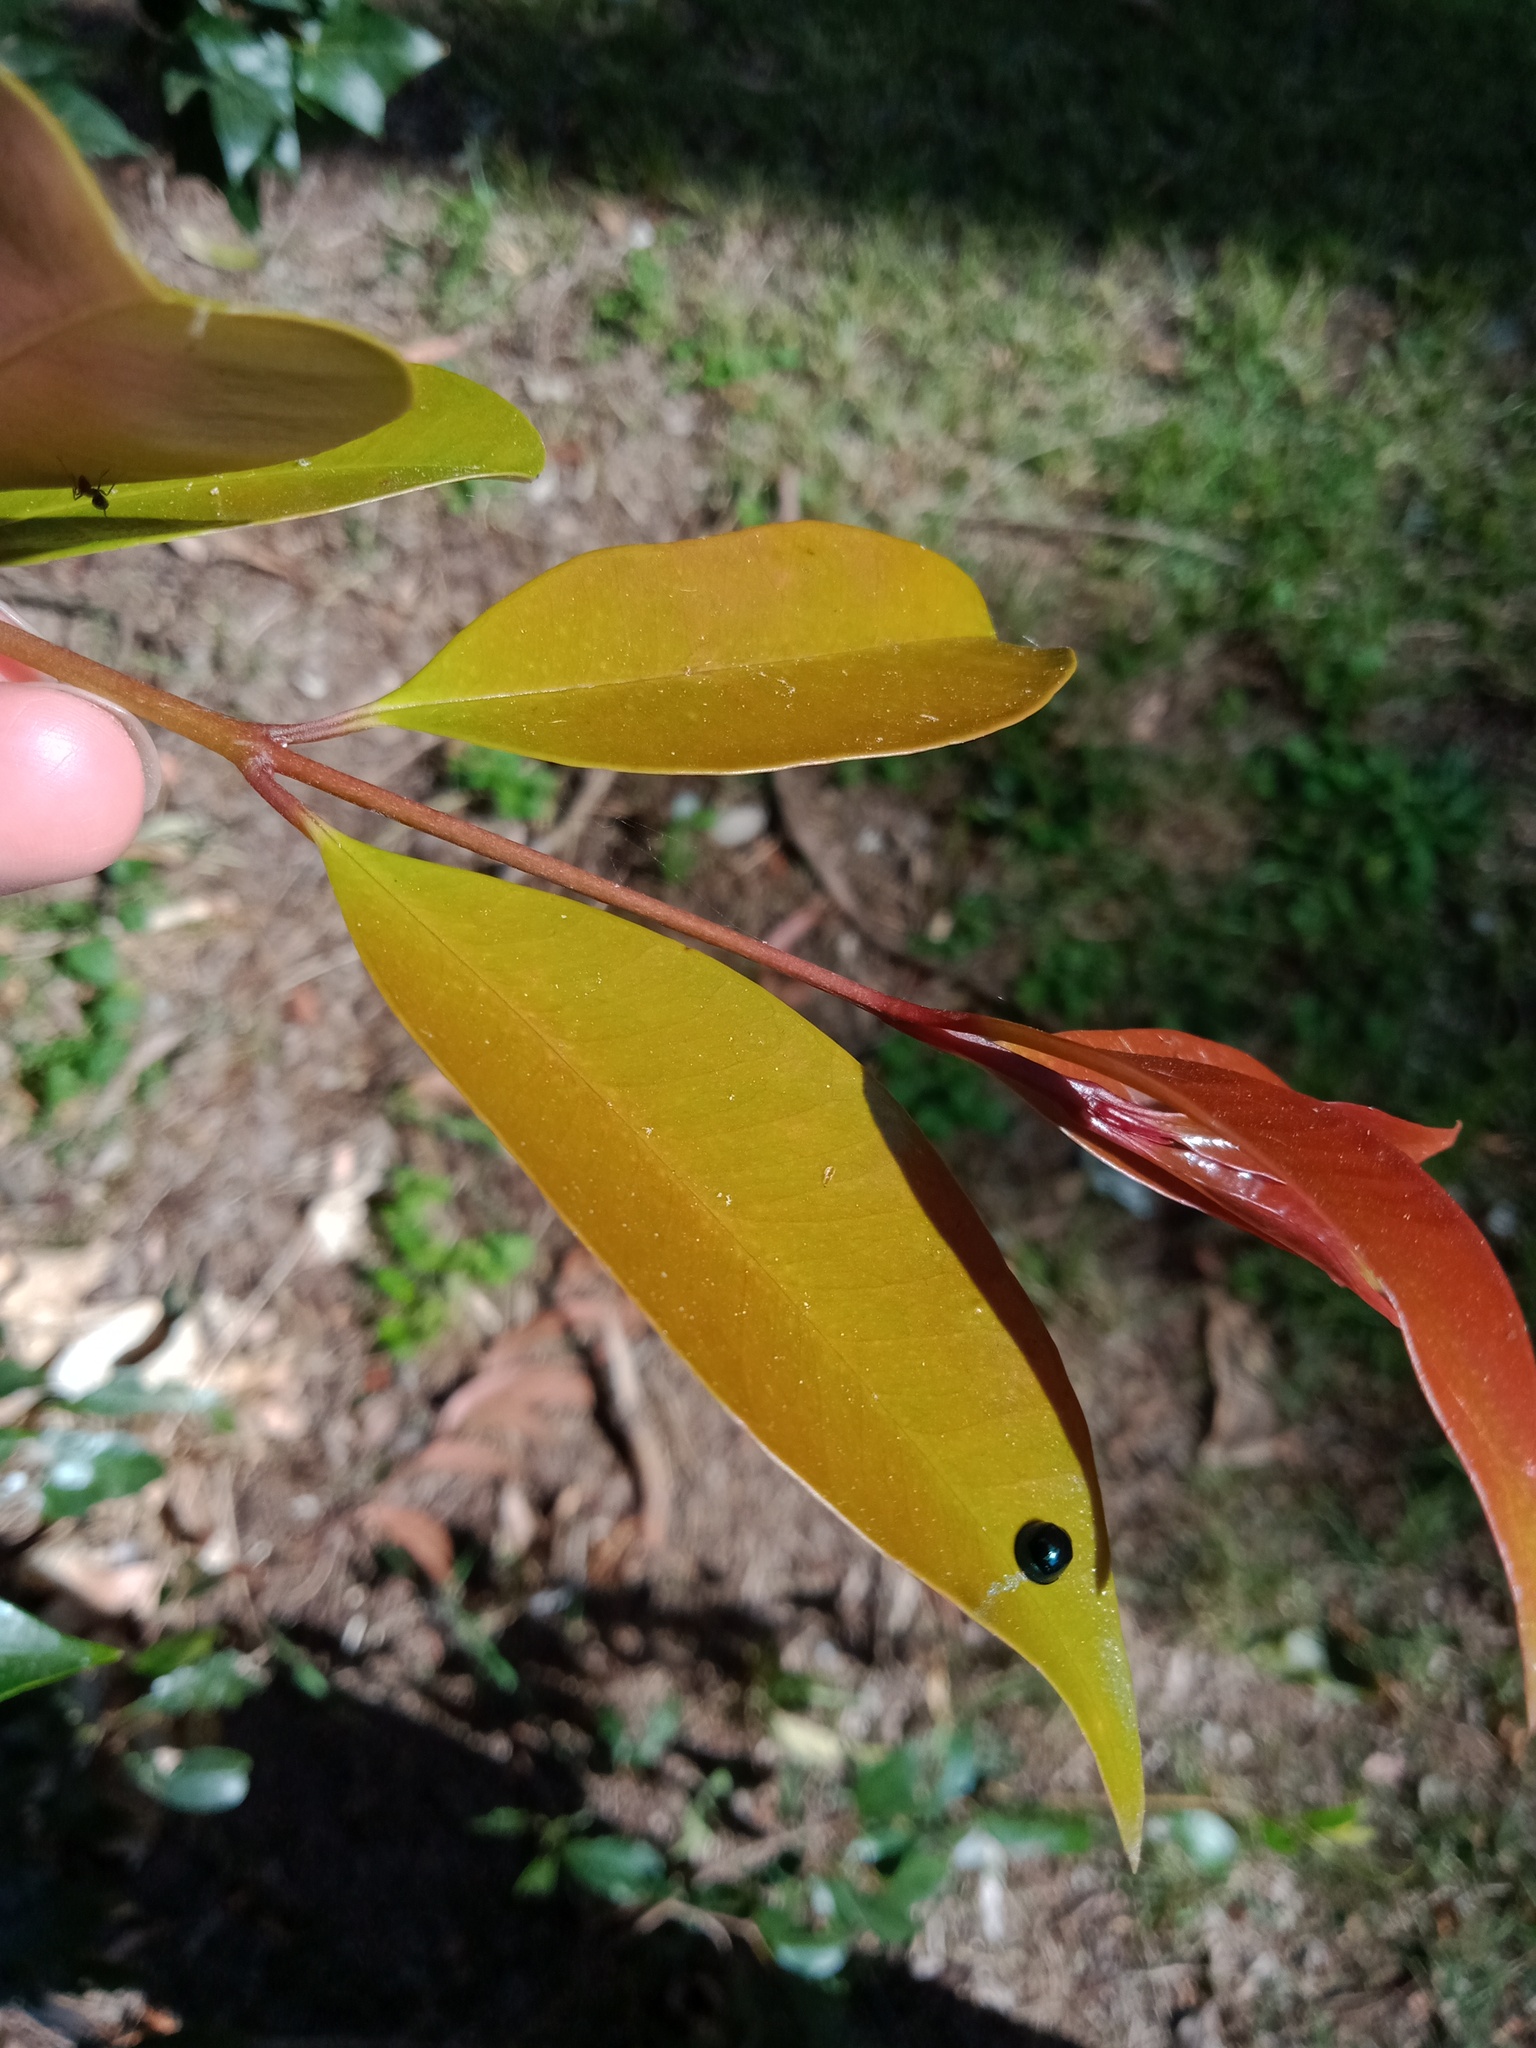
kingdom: Animalia
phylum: Arthropoda
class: Insecta
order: Coleoptera
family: Coccinellidae
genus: Halmus
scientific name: Halmus chalybeus
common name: Steel blue ladybird beetle
